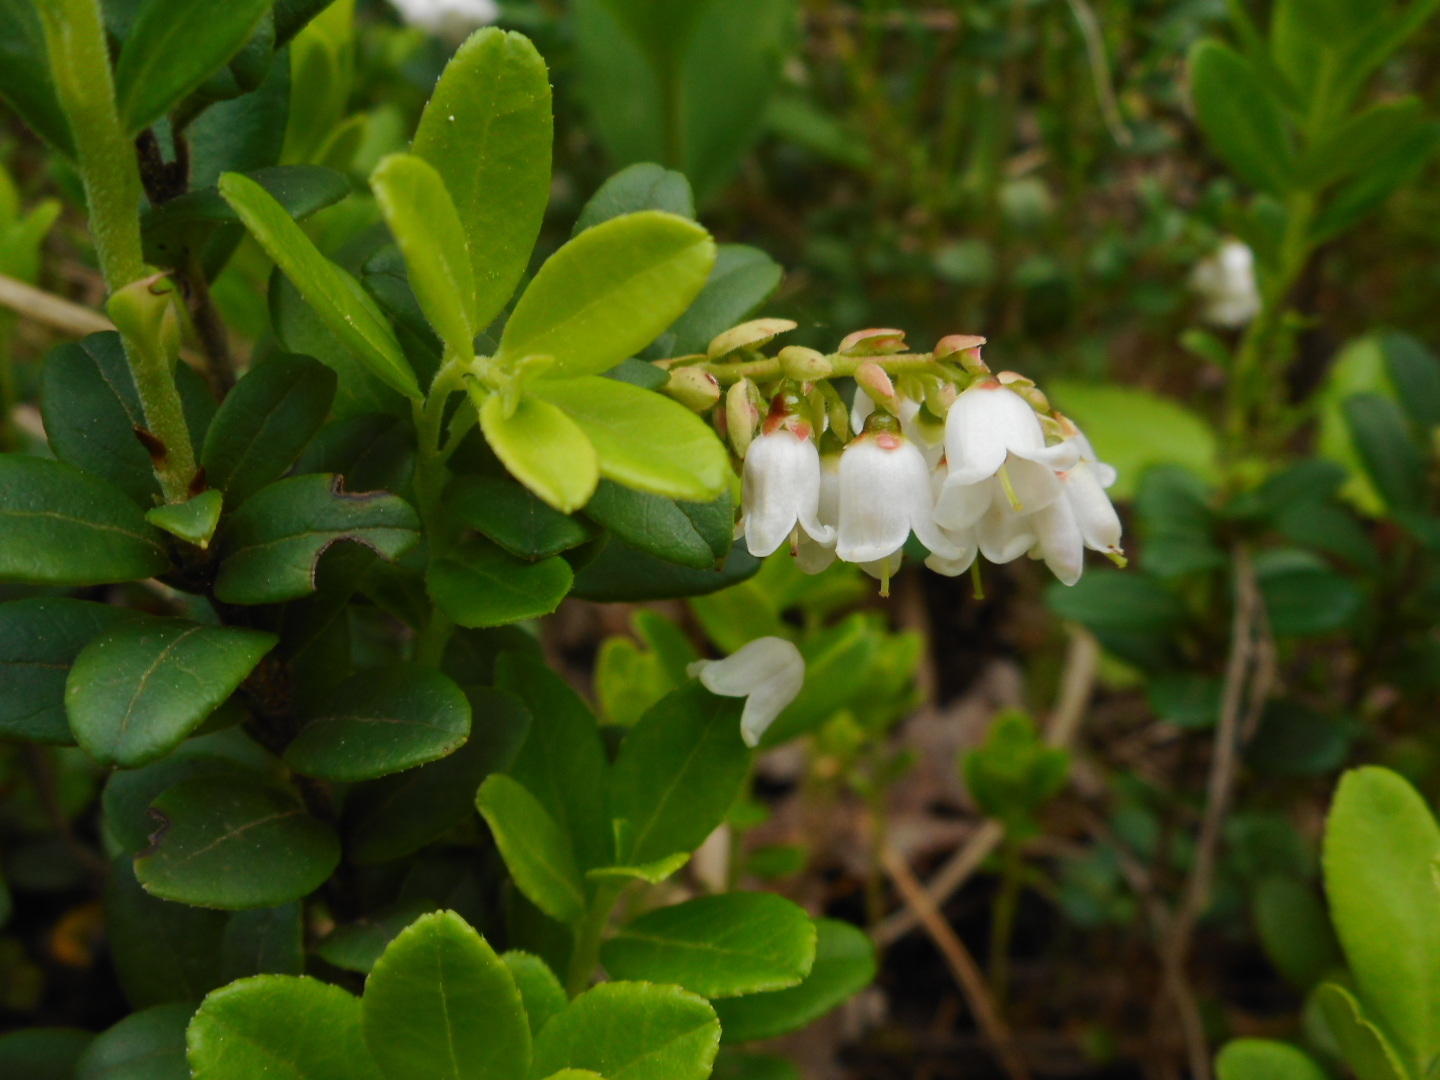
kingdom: Plantae
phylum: Tracheophyta
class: Magnoliopsida
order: Ericales
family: Ericaceae
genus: Vaccinium
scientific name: Vaccinium vitis-idaea
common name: Cowberry
